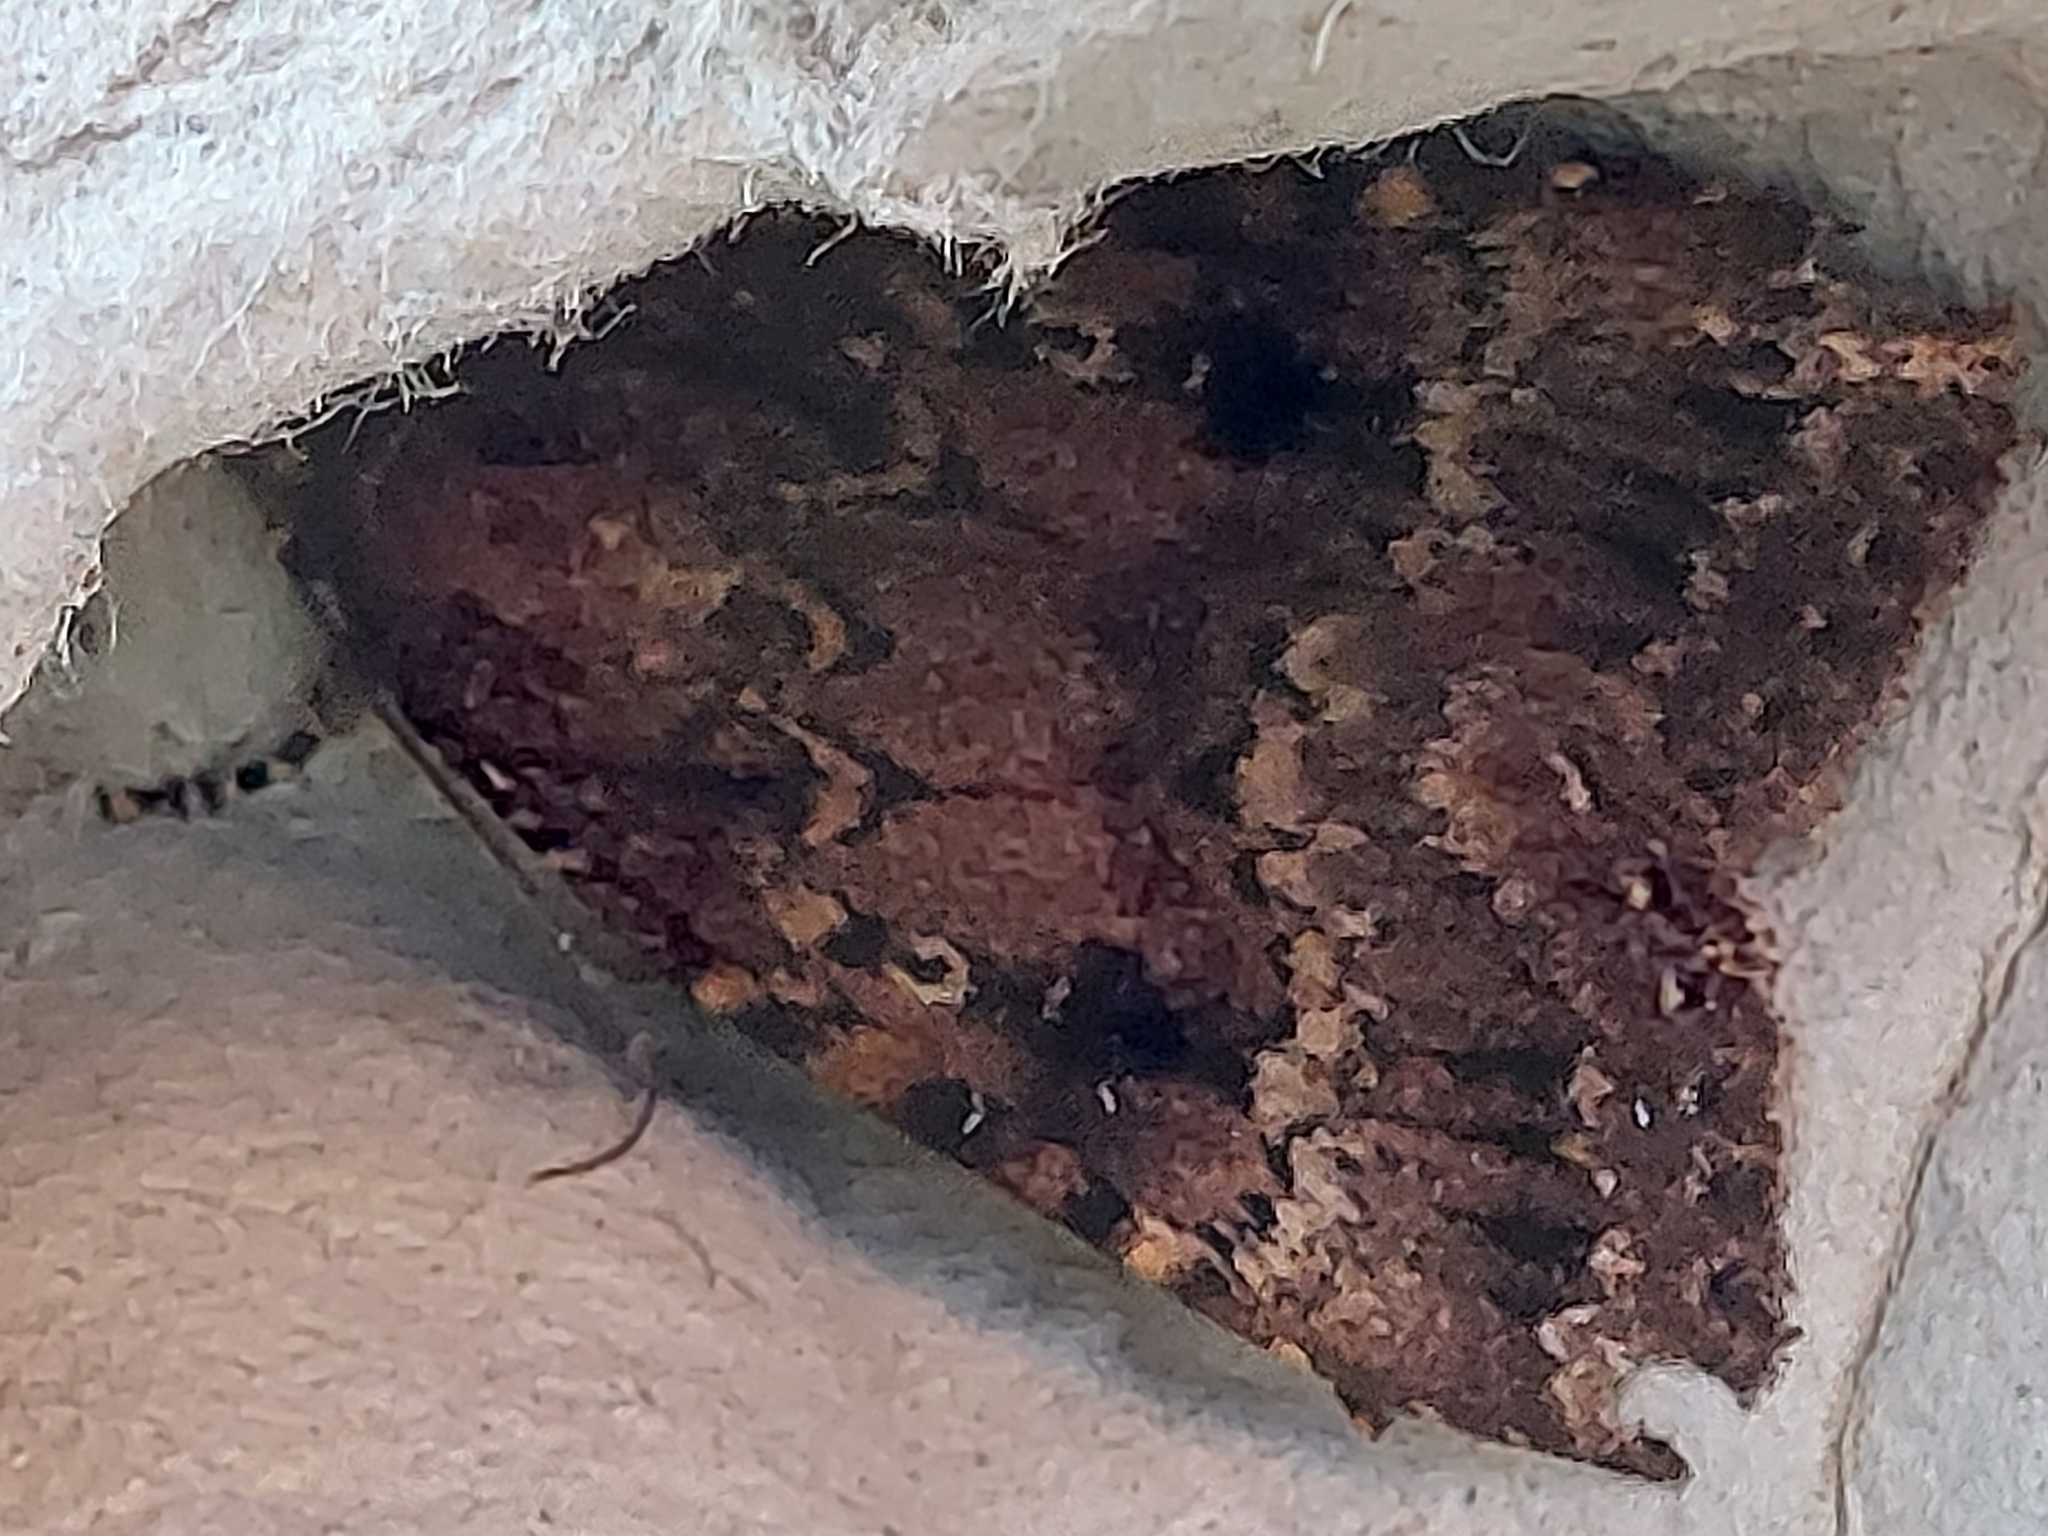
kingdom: Animalia
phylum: Arthropoda
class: Insecta
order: Lepidoptera
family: Noctuidae
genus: Amphipyra
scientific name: Amphipyra
